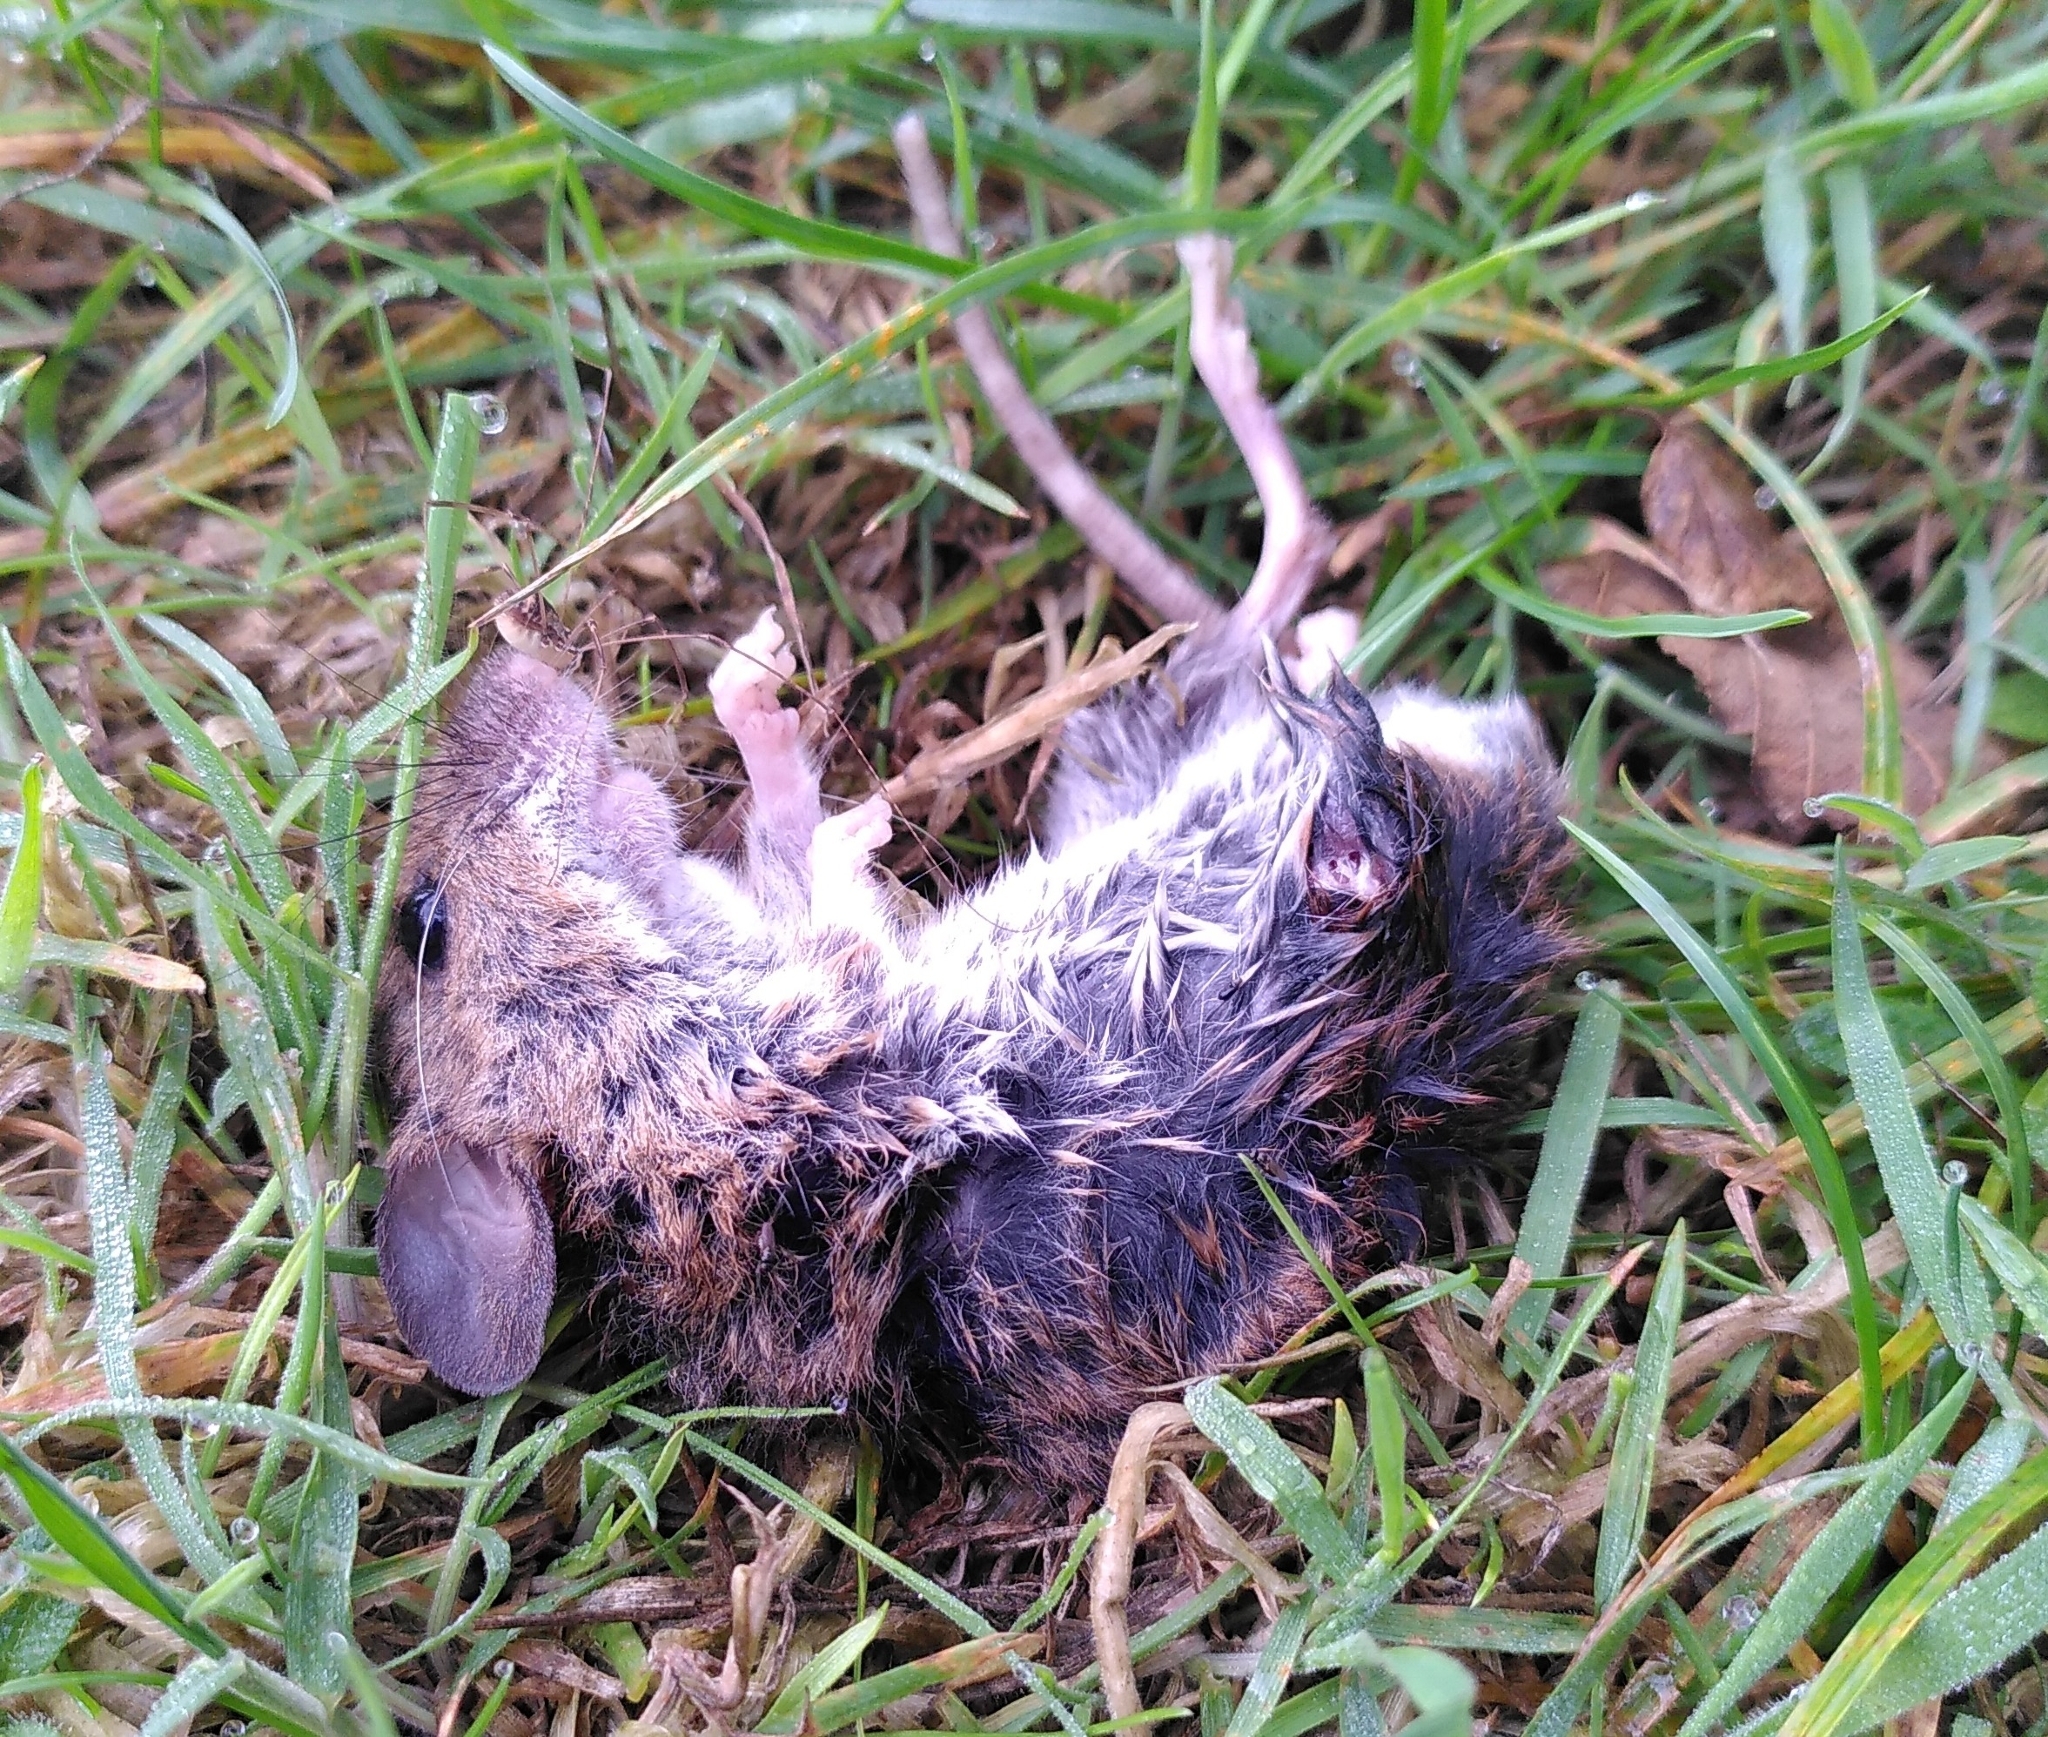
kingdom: Animalia
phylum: Chordata
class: Mammalia
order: Rodentia
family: Muridae
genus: Apodemus
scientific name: Apodemus sylvaticus
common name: Wood mouse
